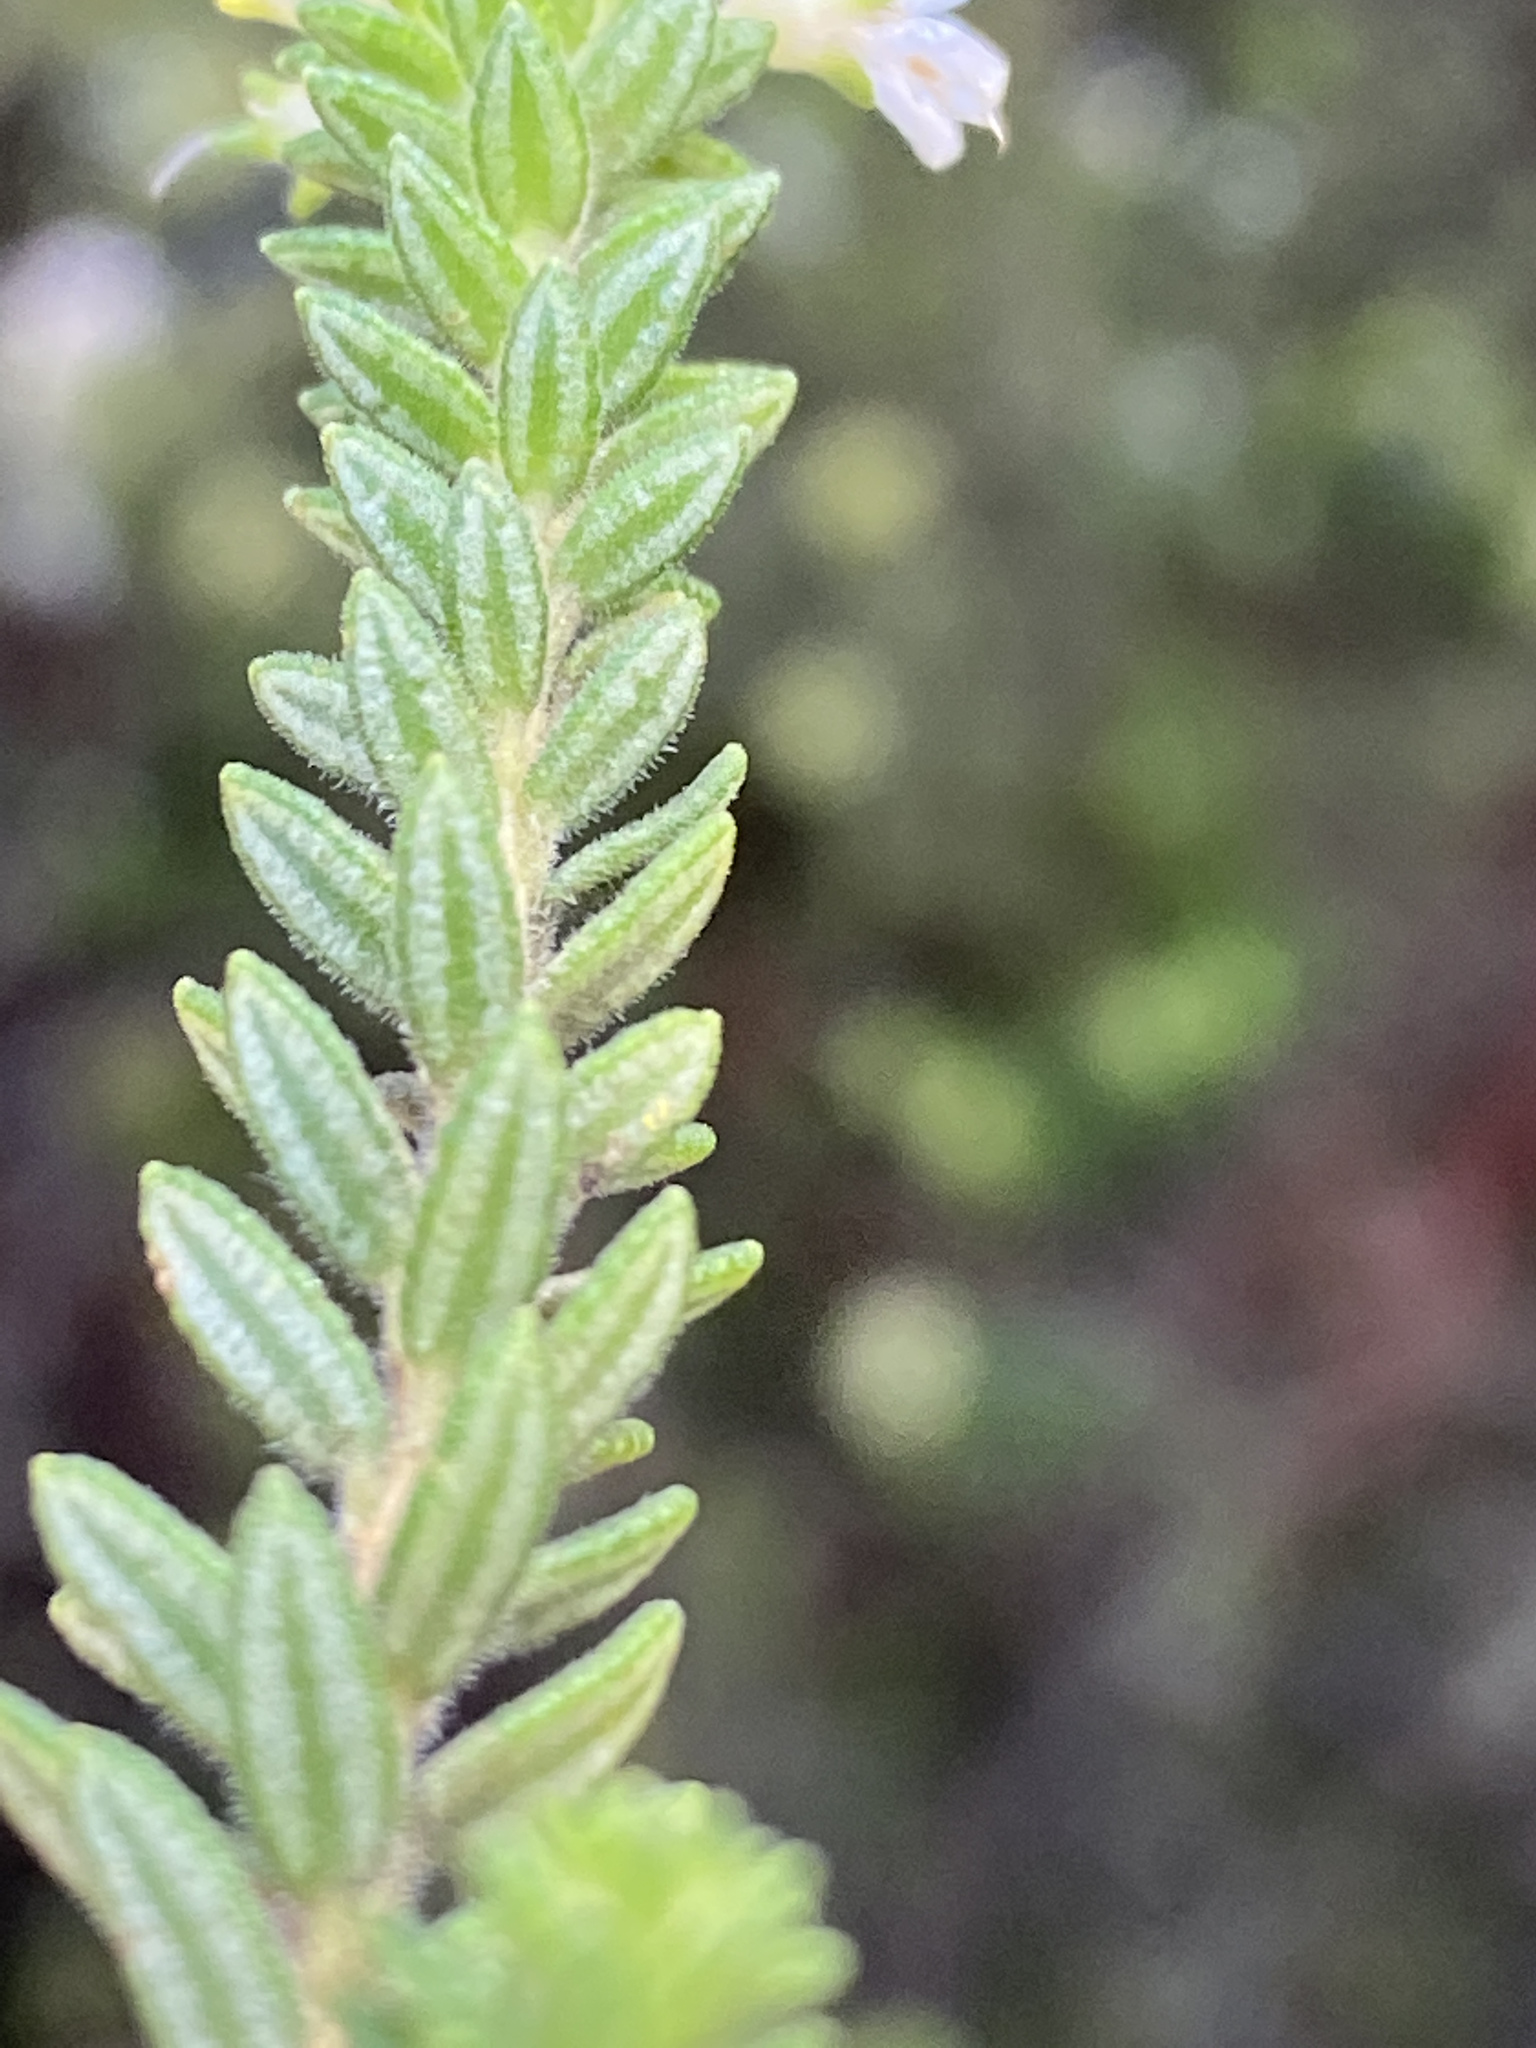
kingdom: Plantae
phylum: Tracheophyta
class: Magnoliopsida
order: Sapindales
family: Rutaceae
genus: Agathosma
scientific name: Agathosma elegans
